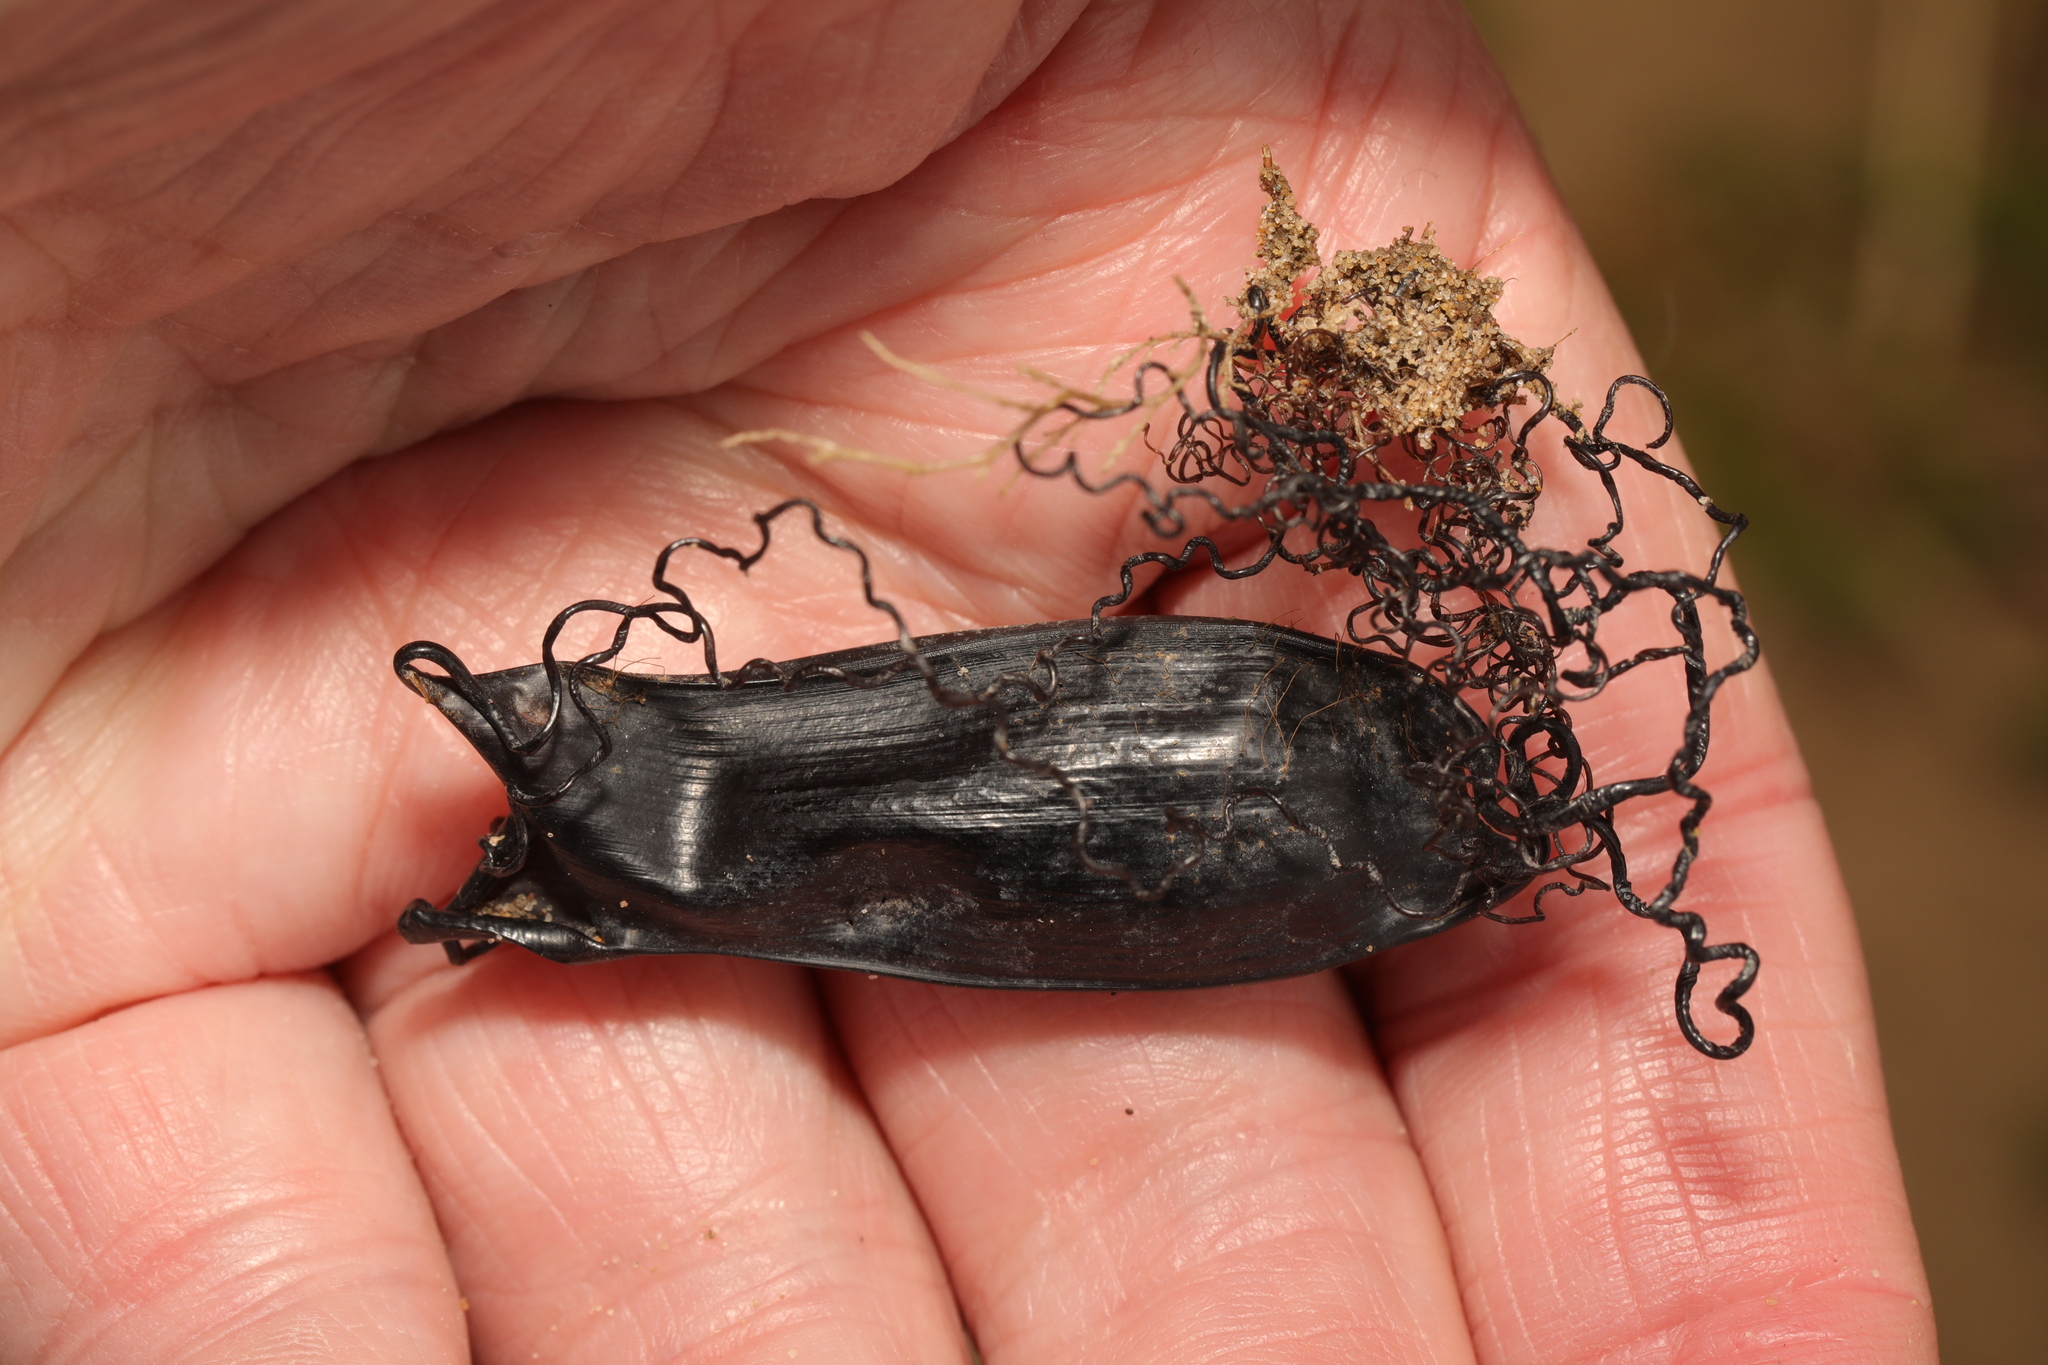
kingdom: Animalia
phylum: Chordata
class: Elasmobranchii
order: Carcharhiniformes
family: Scyliorhinidae
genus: Scyliorhinus
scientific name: Scyliorhinus canicula
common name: Lesser spotted dogfish
